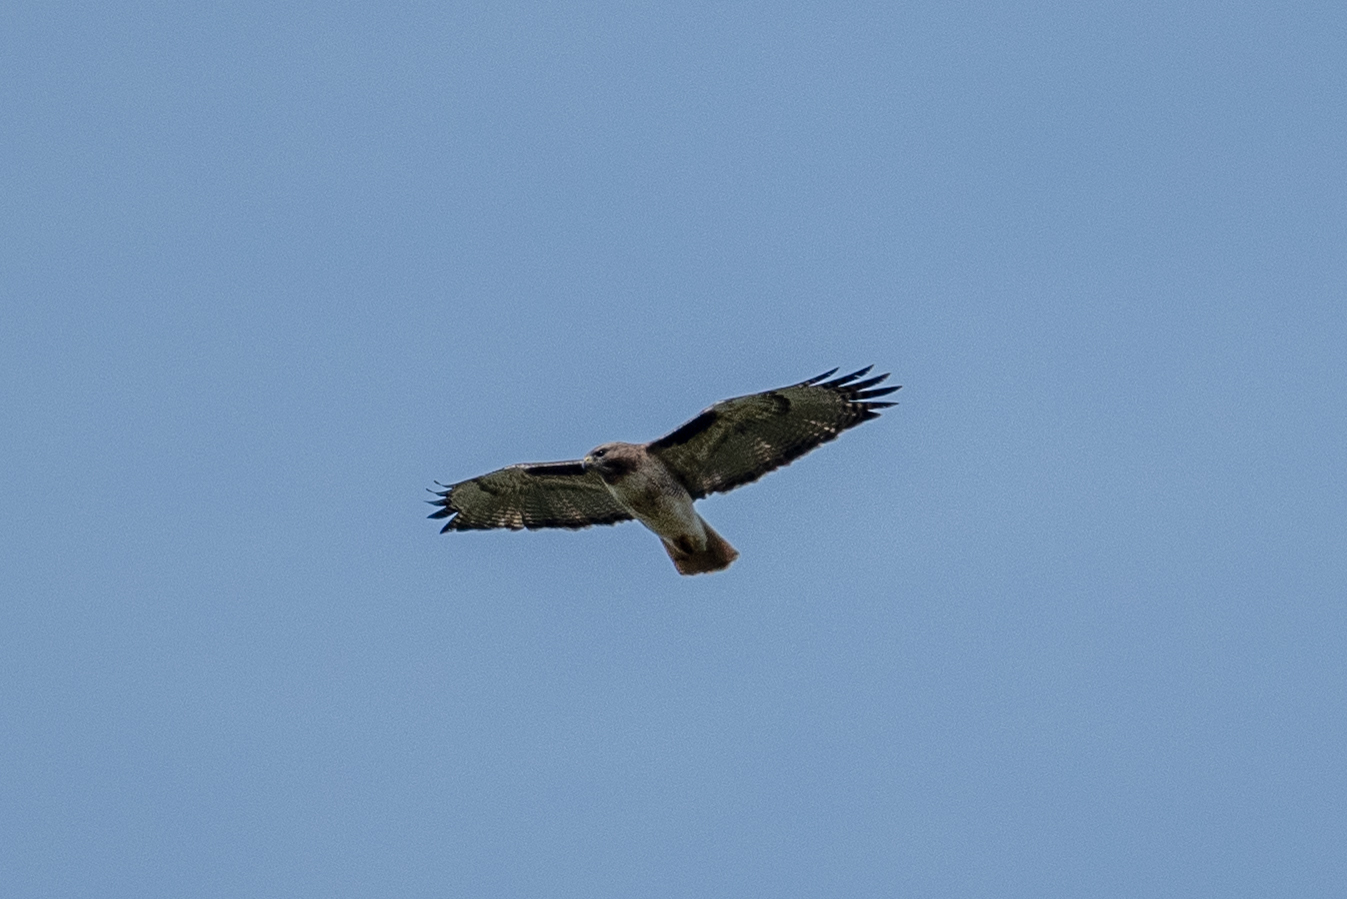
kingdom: Animalia
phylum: Chordata
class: Aves
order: Accipitriformes
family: Accipitridae
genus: Buteo
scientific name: Buteo jamaicensis
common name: Red-tailed hawk
